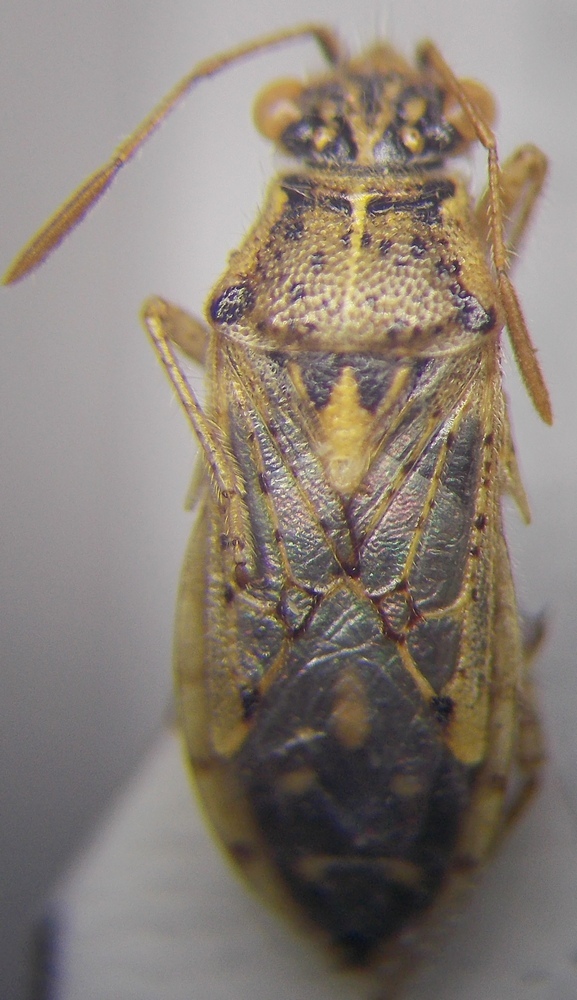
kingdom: Animalia
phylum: Arthropoda
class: Insecta
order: Hemiptera
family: Rhopalidae
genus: Brachycarenus
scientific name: Brachycarenus tigrinus
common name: Scentless plant bug
